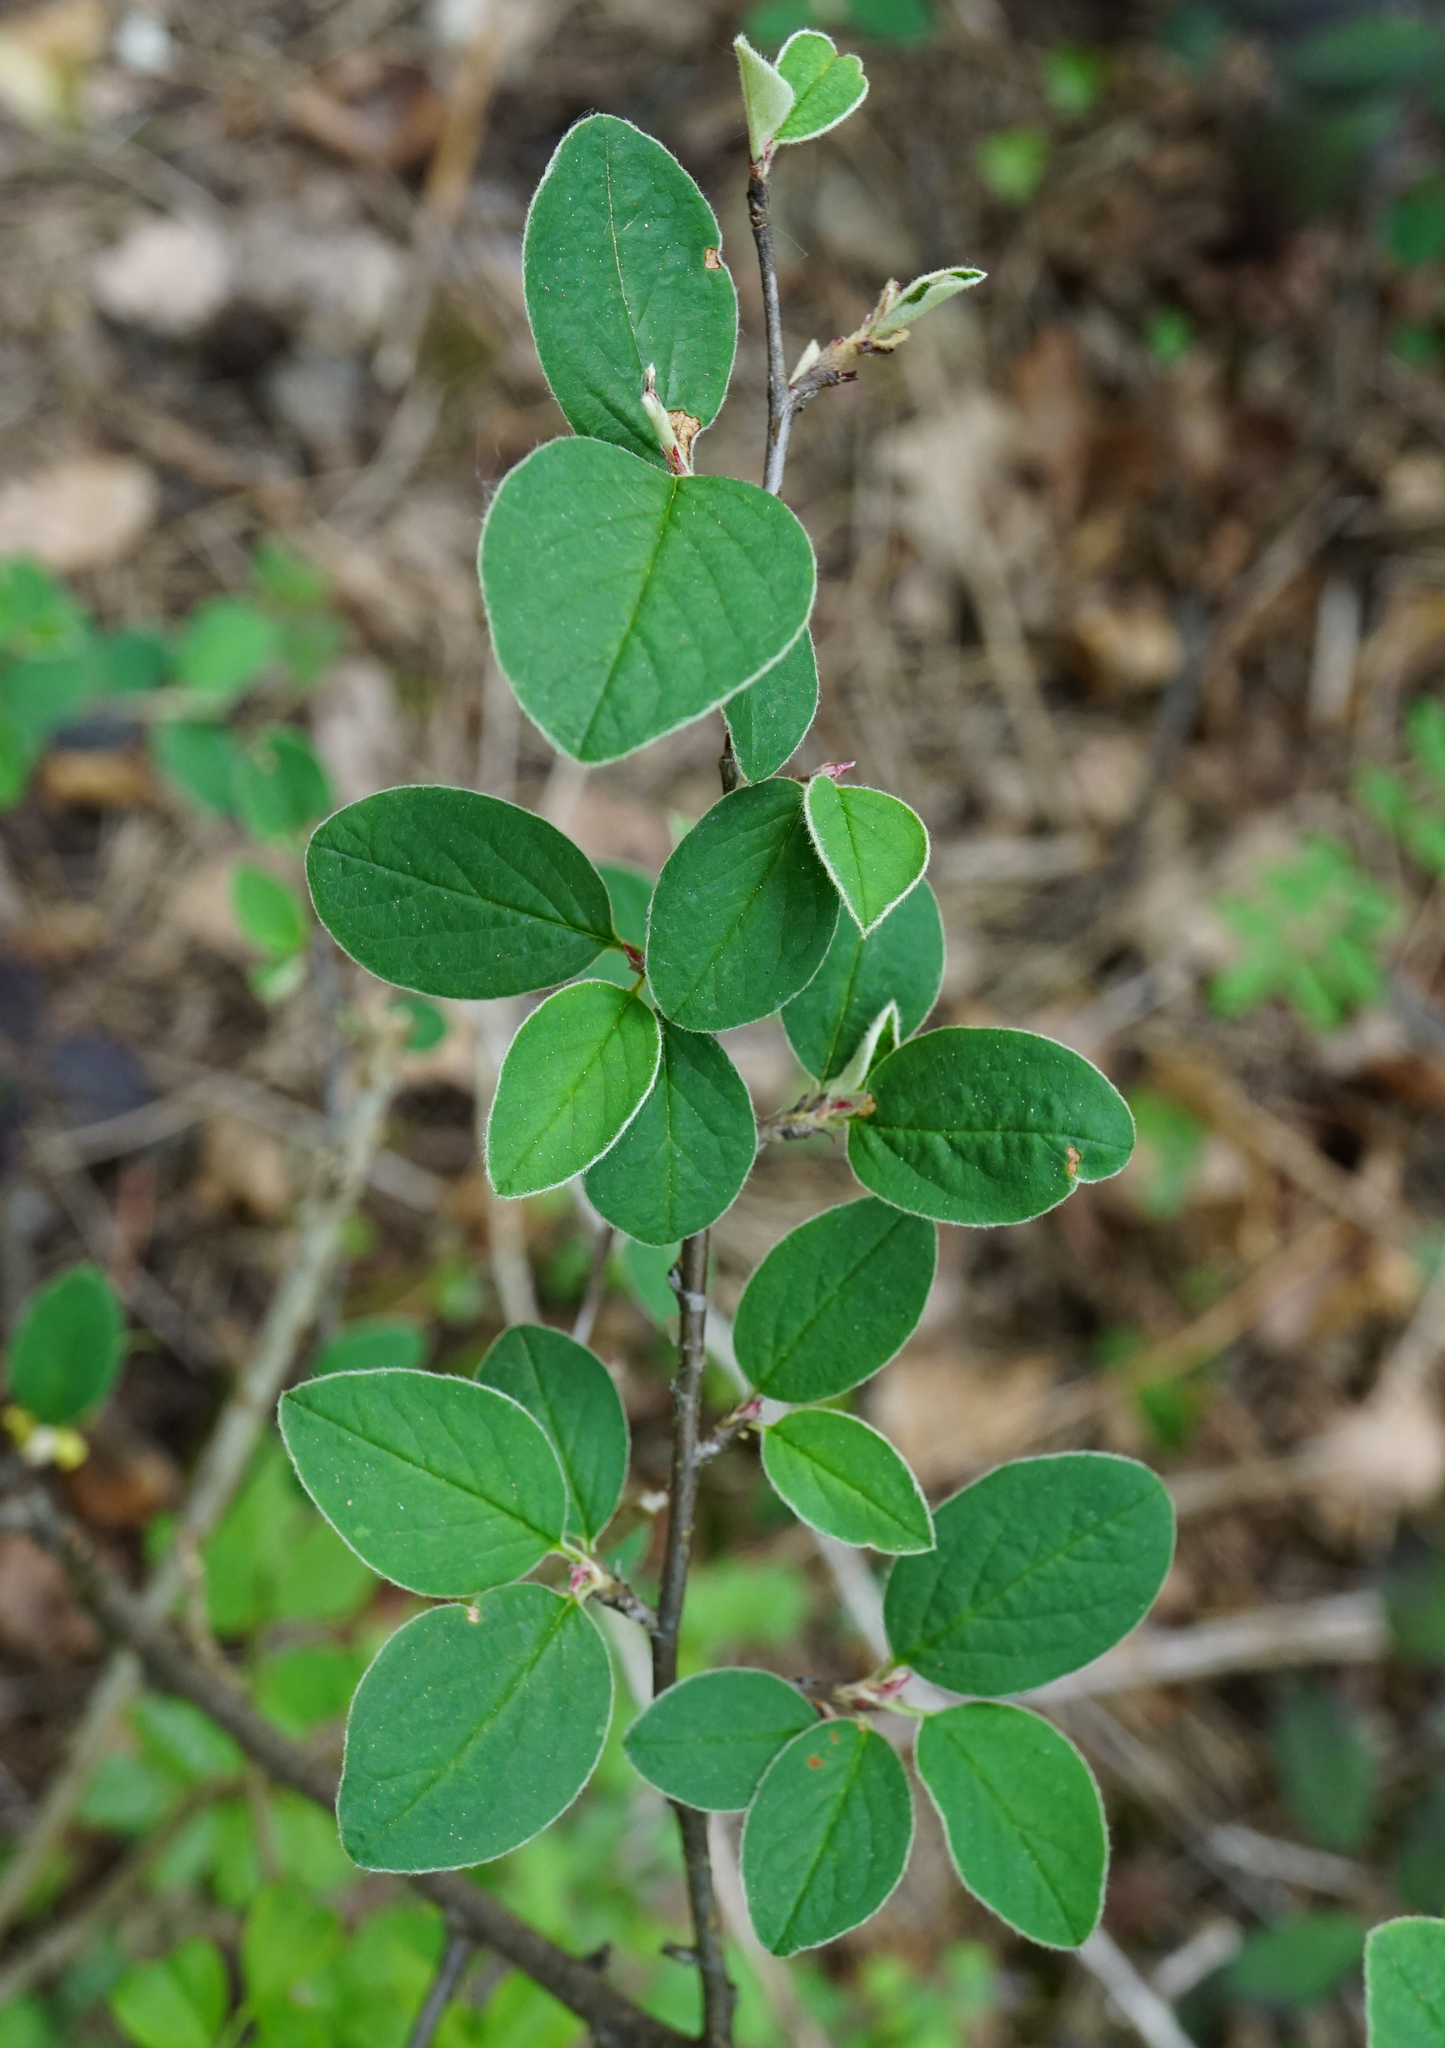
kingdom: Plantae
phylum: Tracheophyta
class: Magnoliopsida
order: Rosales
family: Rosaceae
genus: Cotoneaster
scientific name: Cotoneaster integerrimus
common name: Wild cotoneaster
